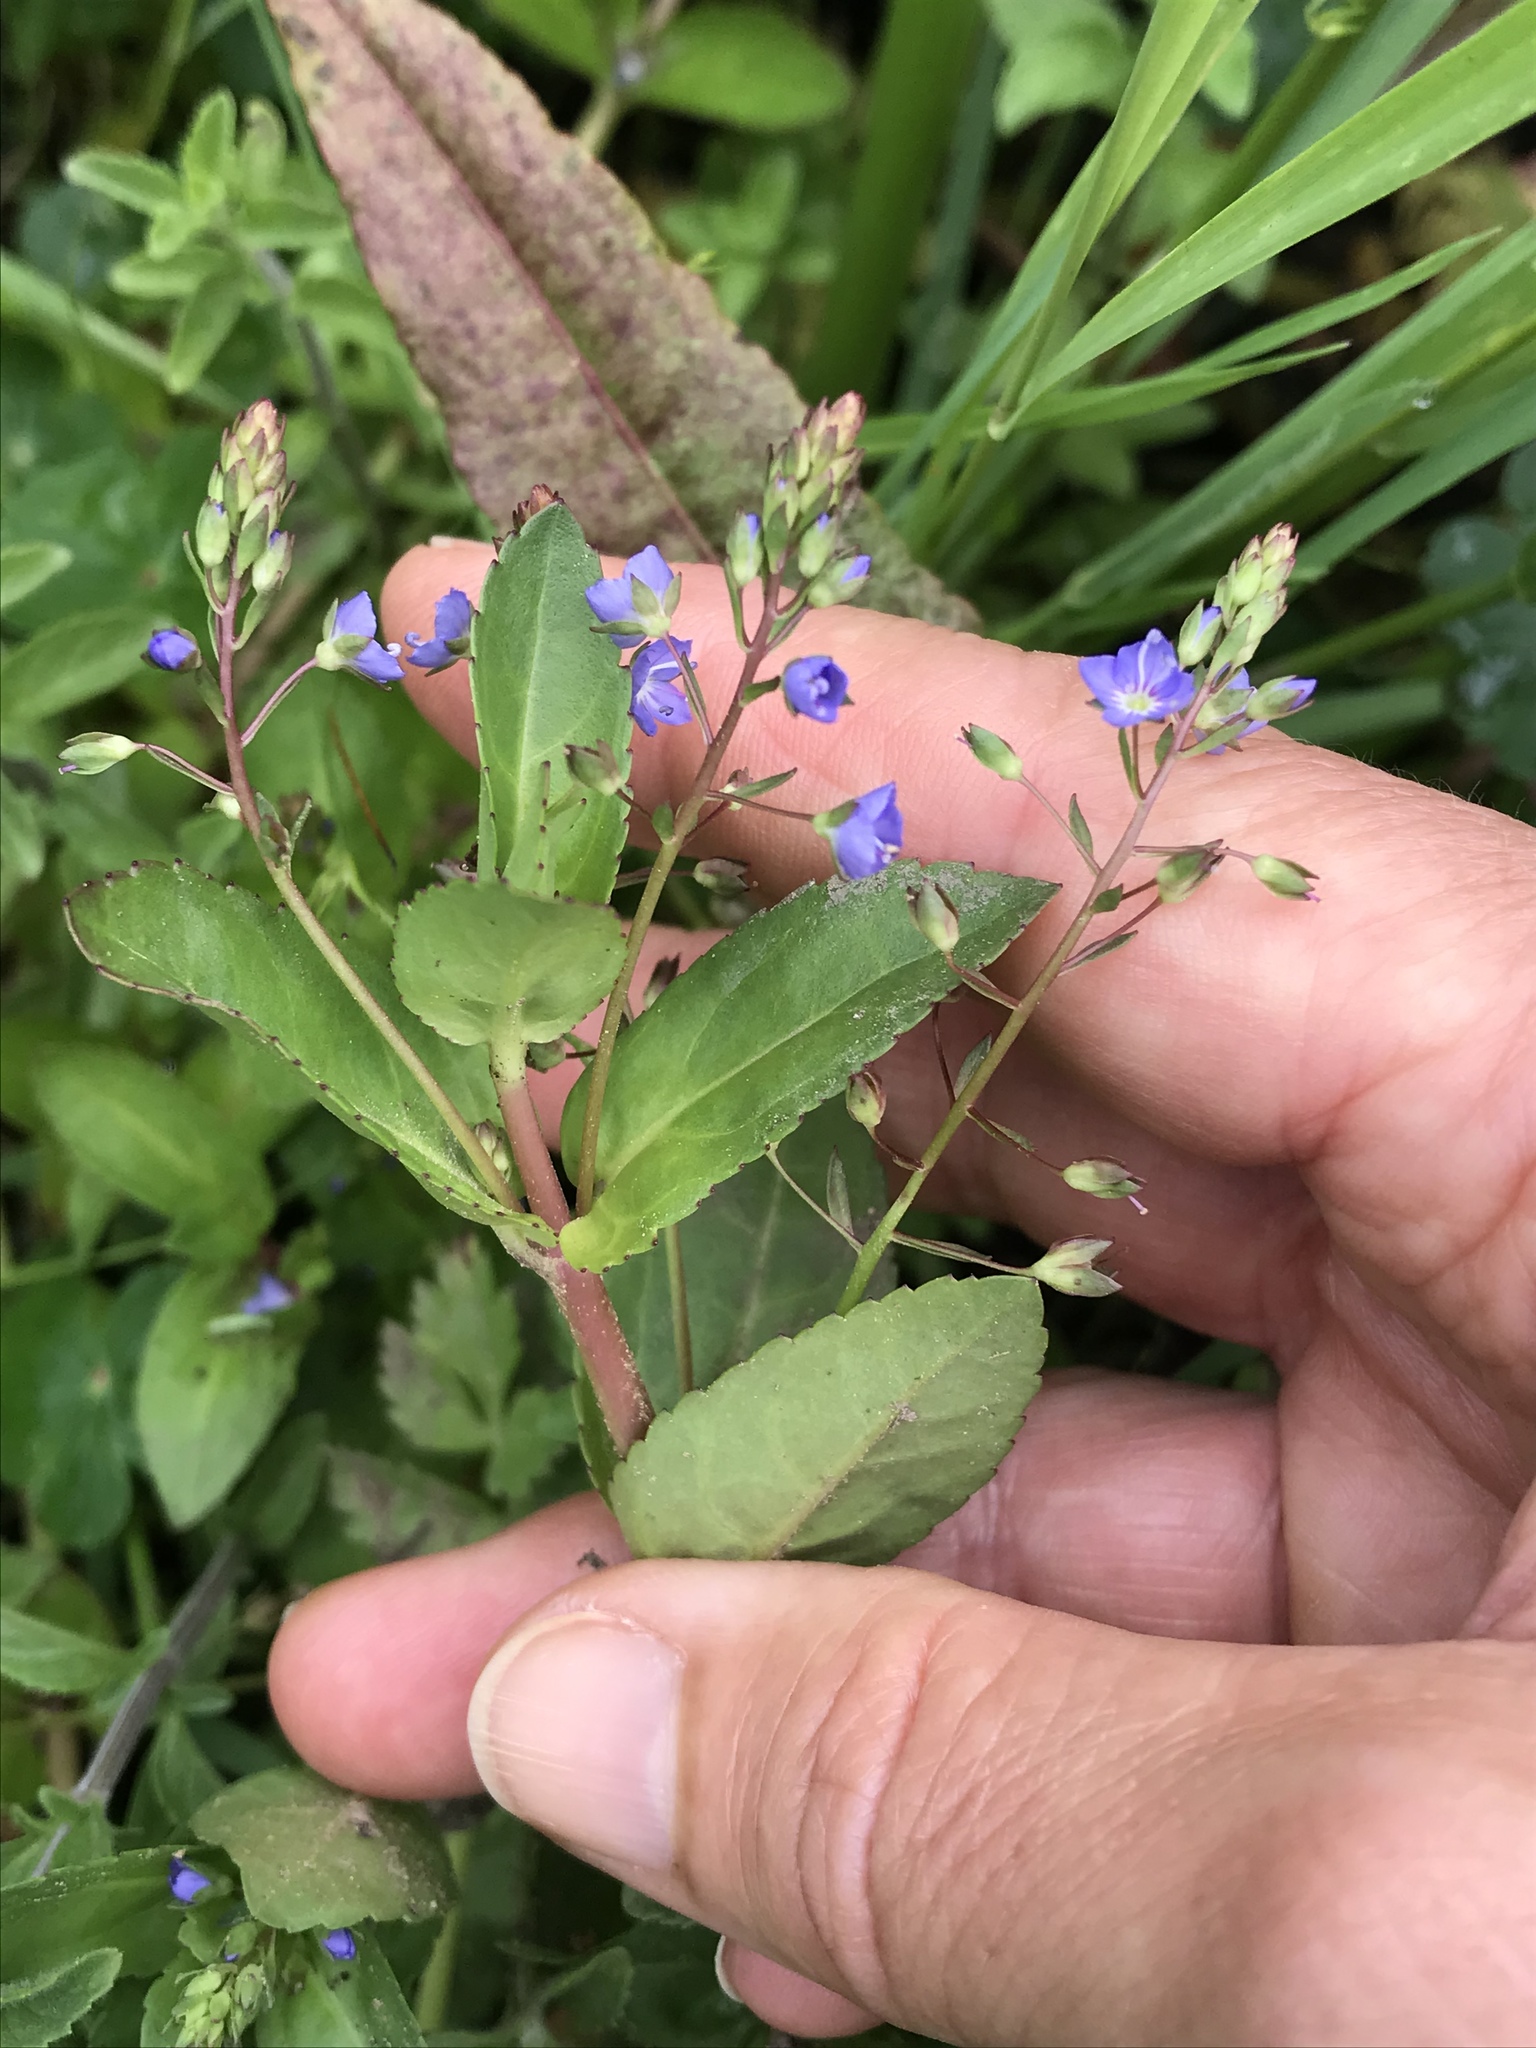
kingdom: Plantae
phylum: Tracheophyta
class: Magnoliopsida
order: Lamiales
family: Plantaginaceae
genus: Veronica
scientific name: Veronica americana
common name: American brooklime
